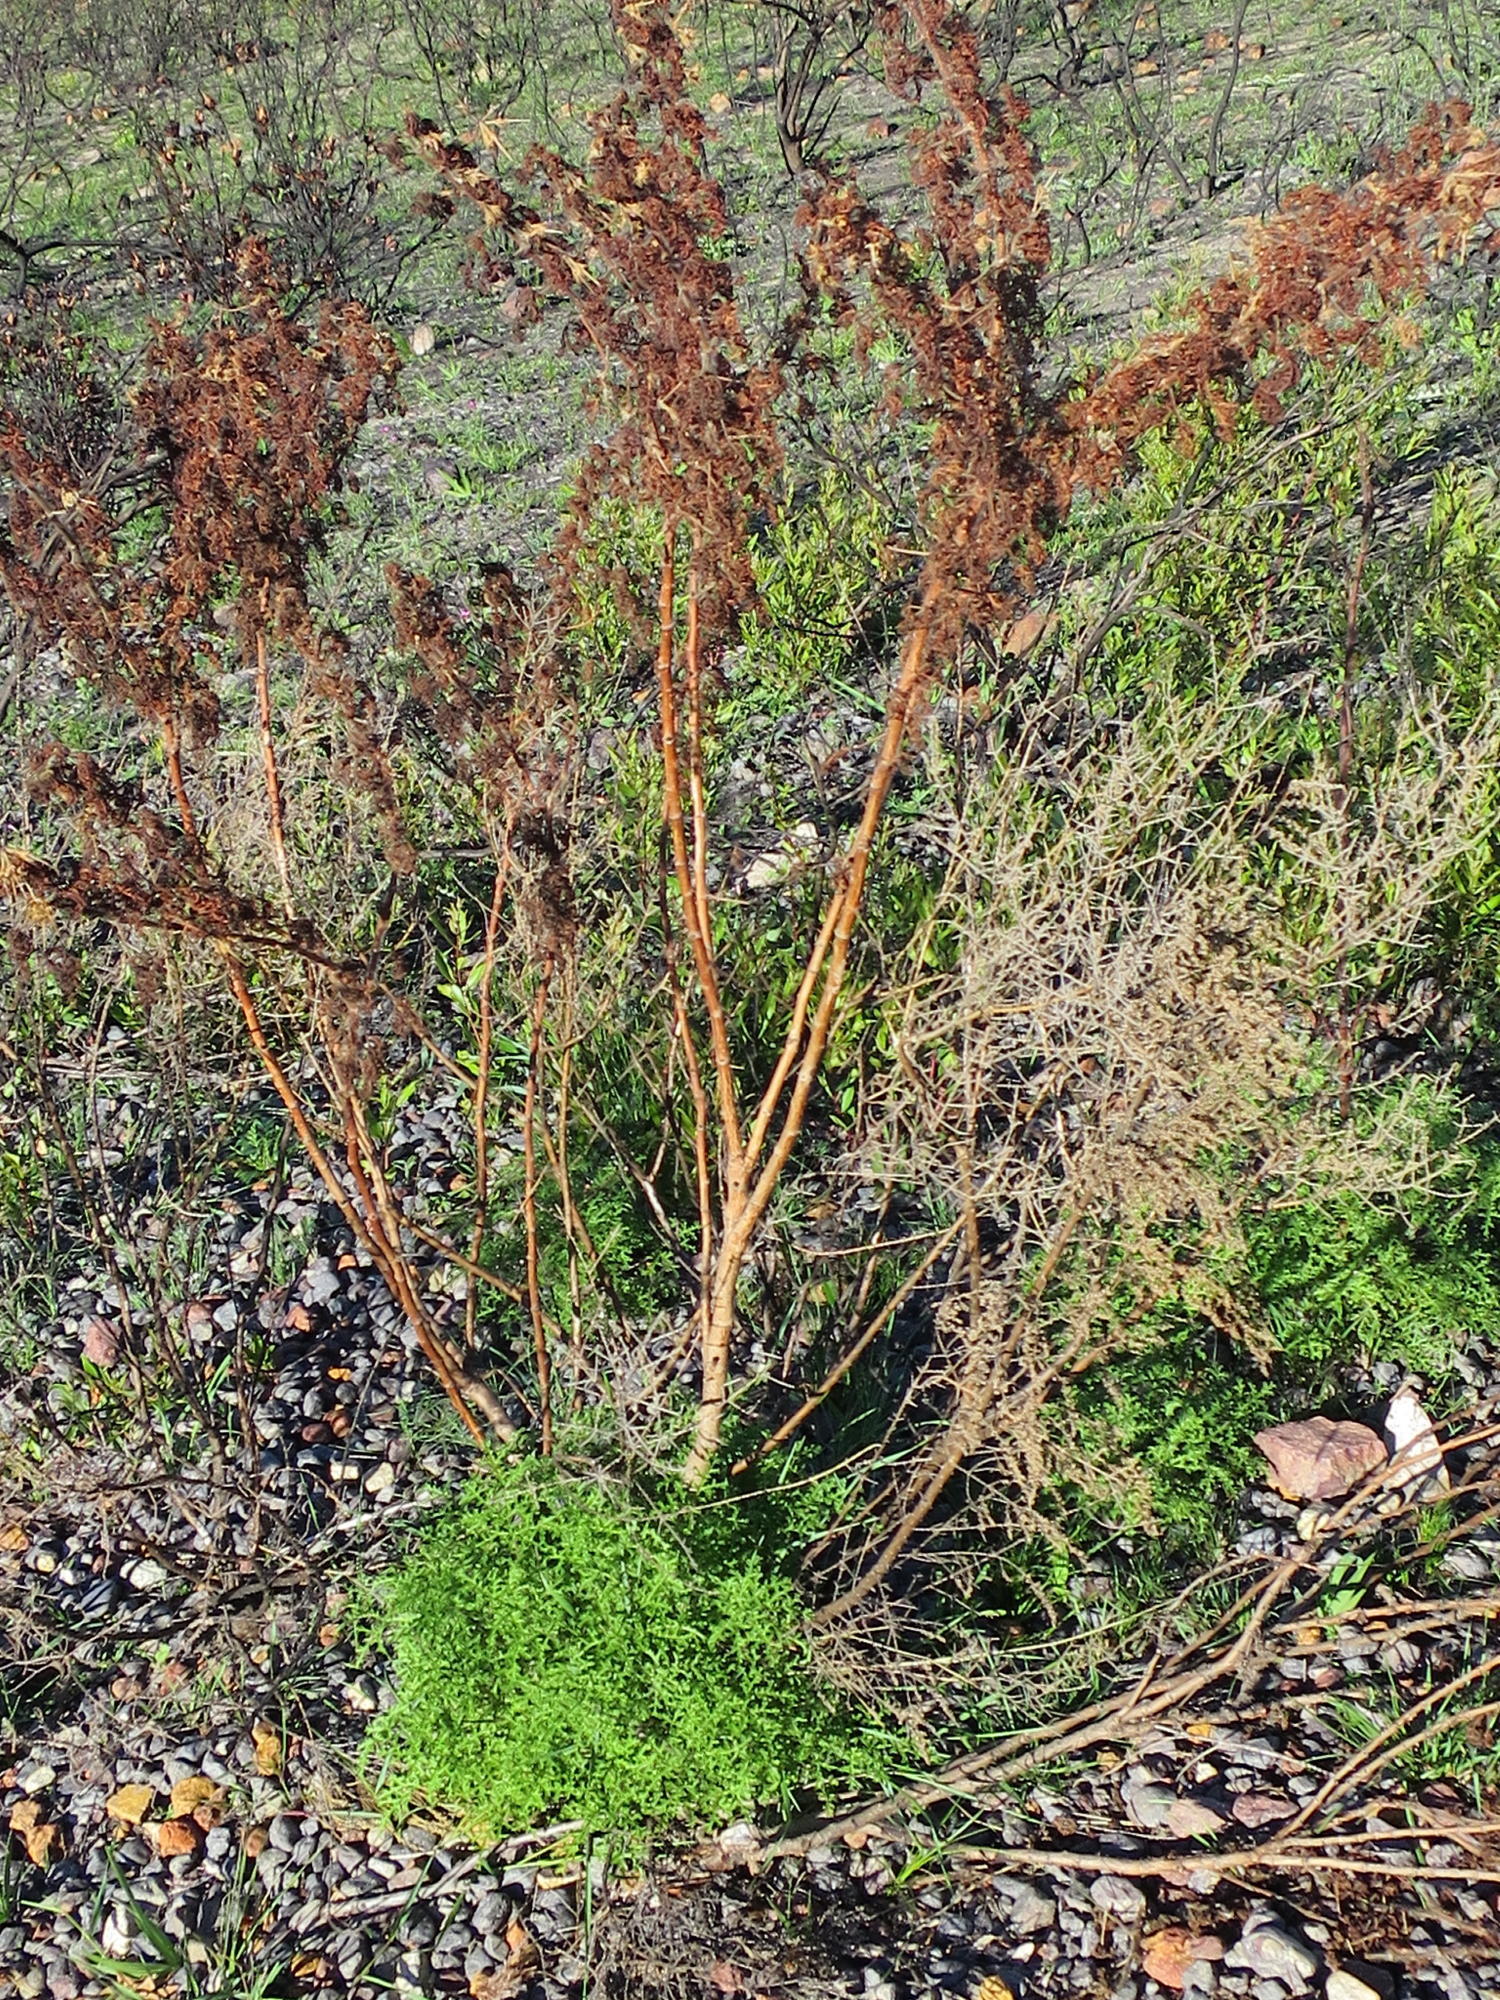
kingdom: Plantae
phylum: Tracheophyta
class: Magnoliopsida
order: Geraniales
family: Geraniaceae
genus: Pelargonium
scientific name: Pelargonium denticulatum
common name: Pine geranium
